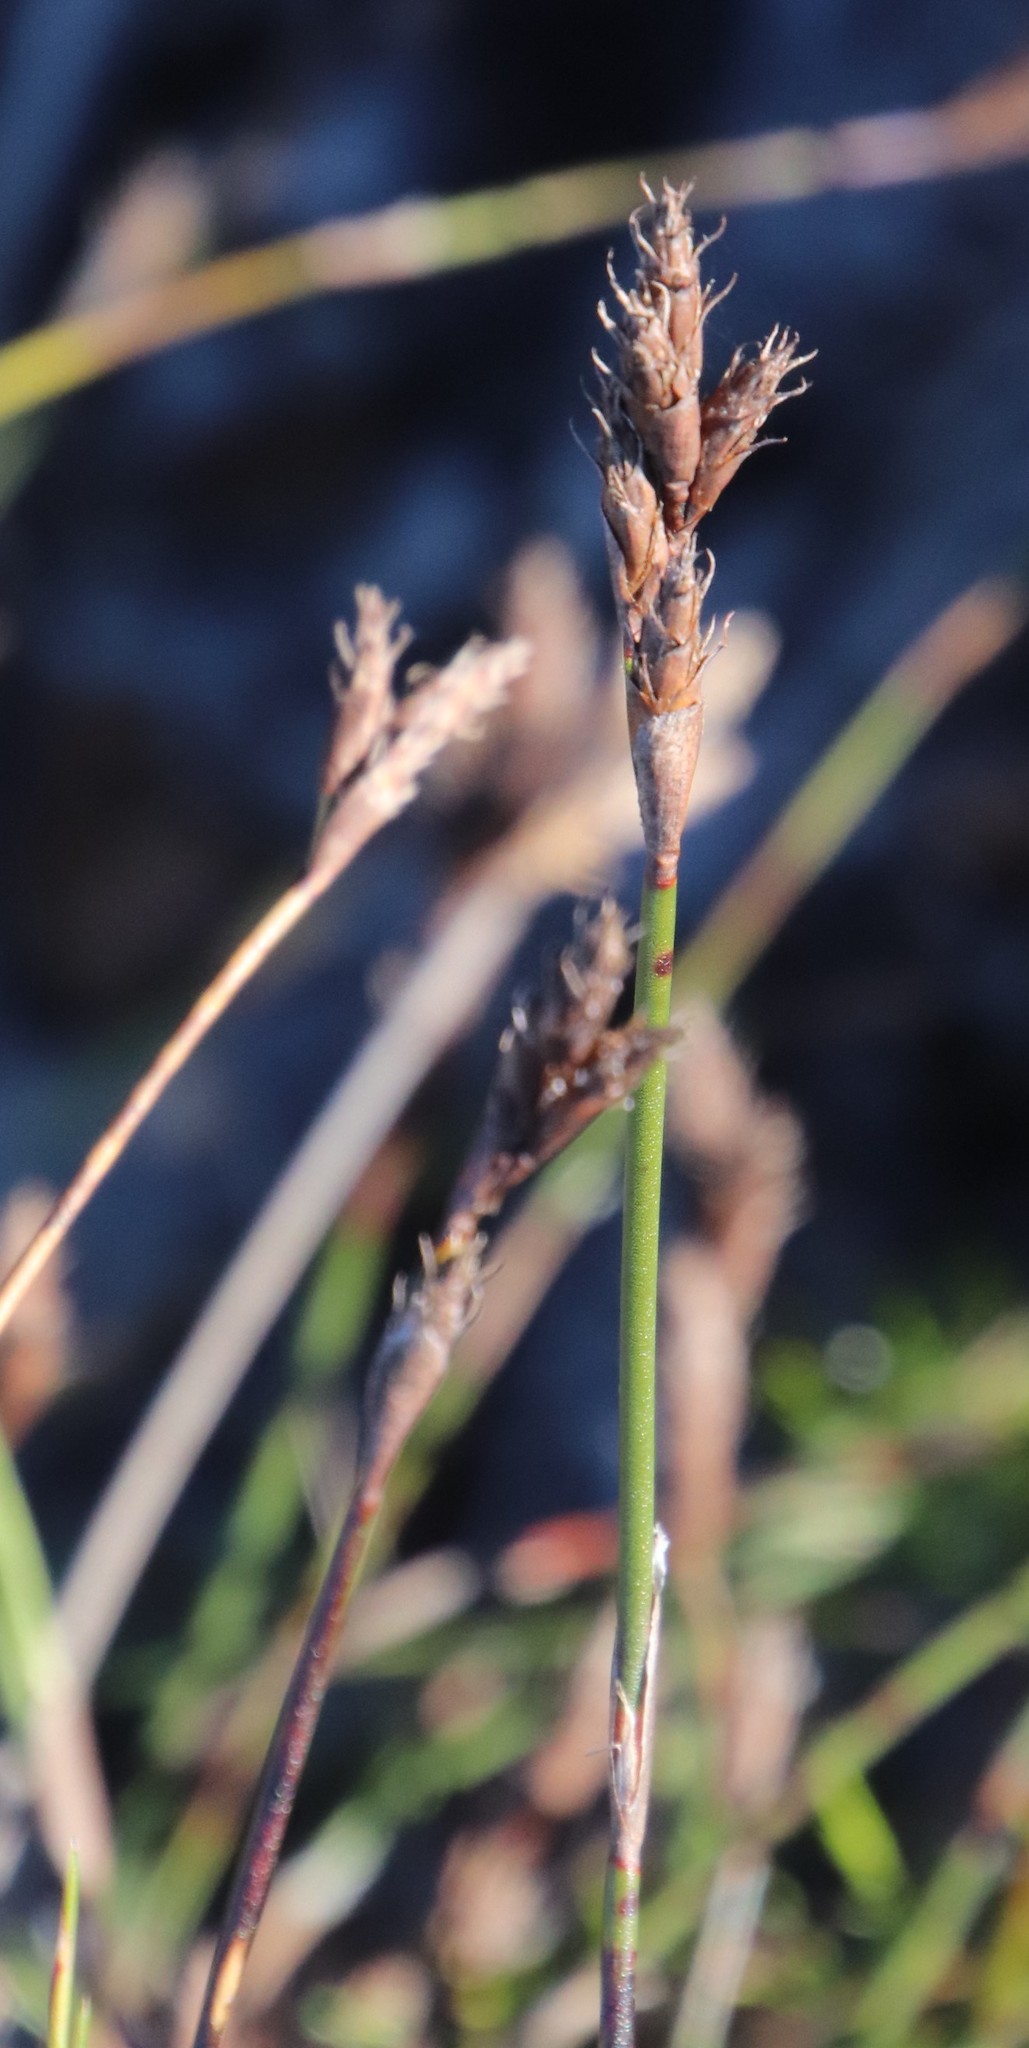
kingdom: Plantae
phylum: Tracheophyta
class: Liliopsida
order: Poales
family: Restionaceae
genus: Restio
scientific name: Restio capensis
